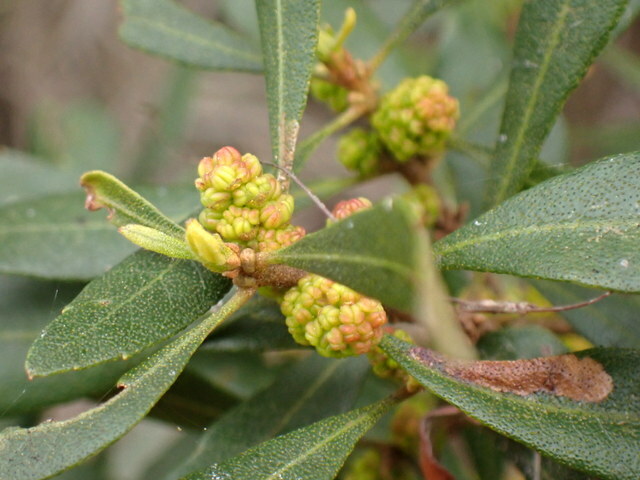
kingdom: Plantae
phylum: Tracheophyta
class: Magnoliopsida
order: Fagales
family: Myricaceae
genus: Morella
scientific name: Morella cerifera
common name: Wax myrtle
